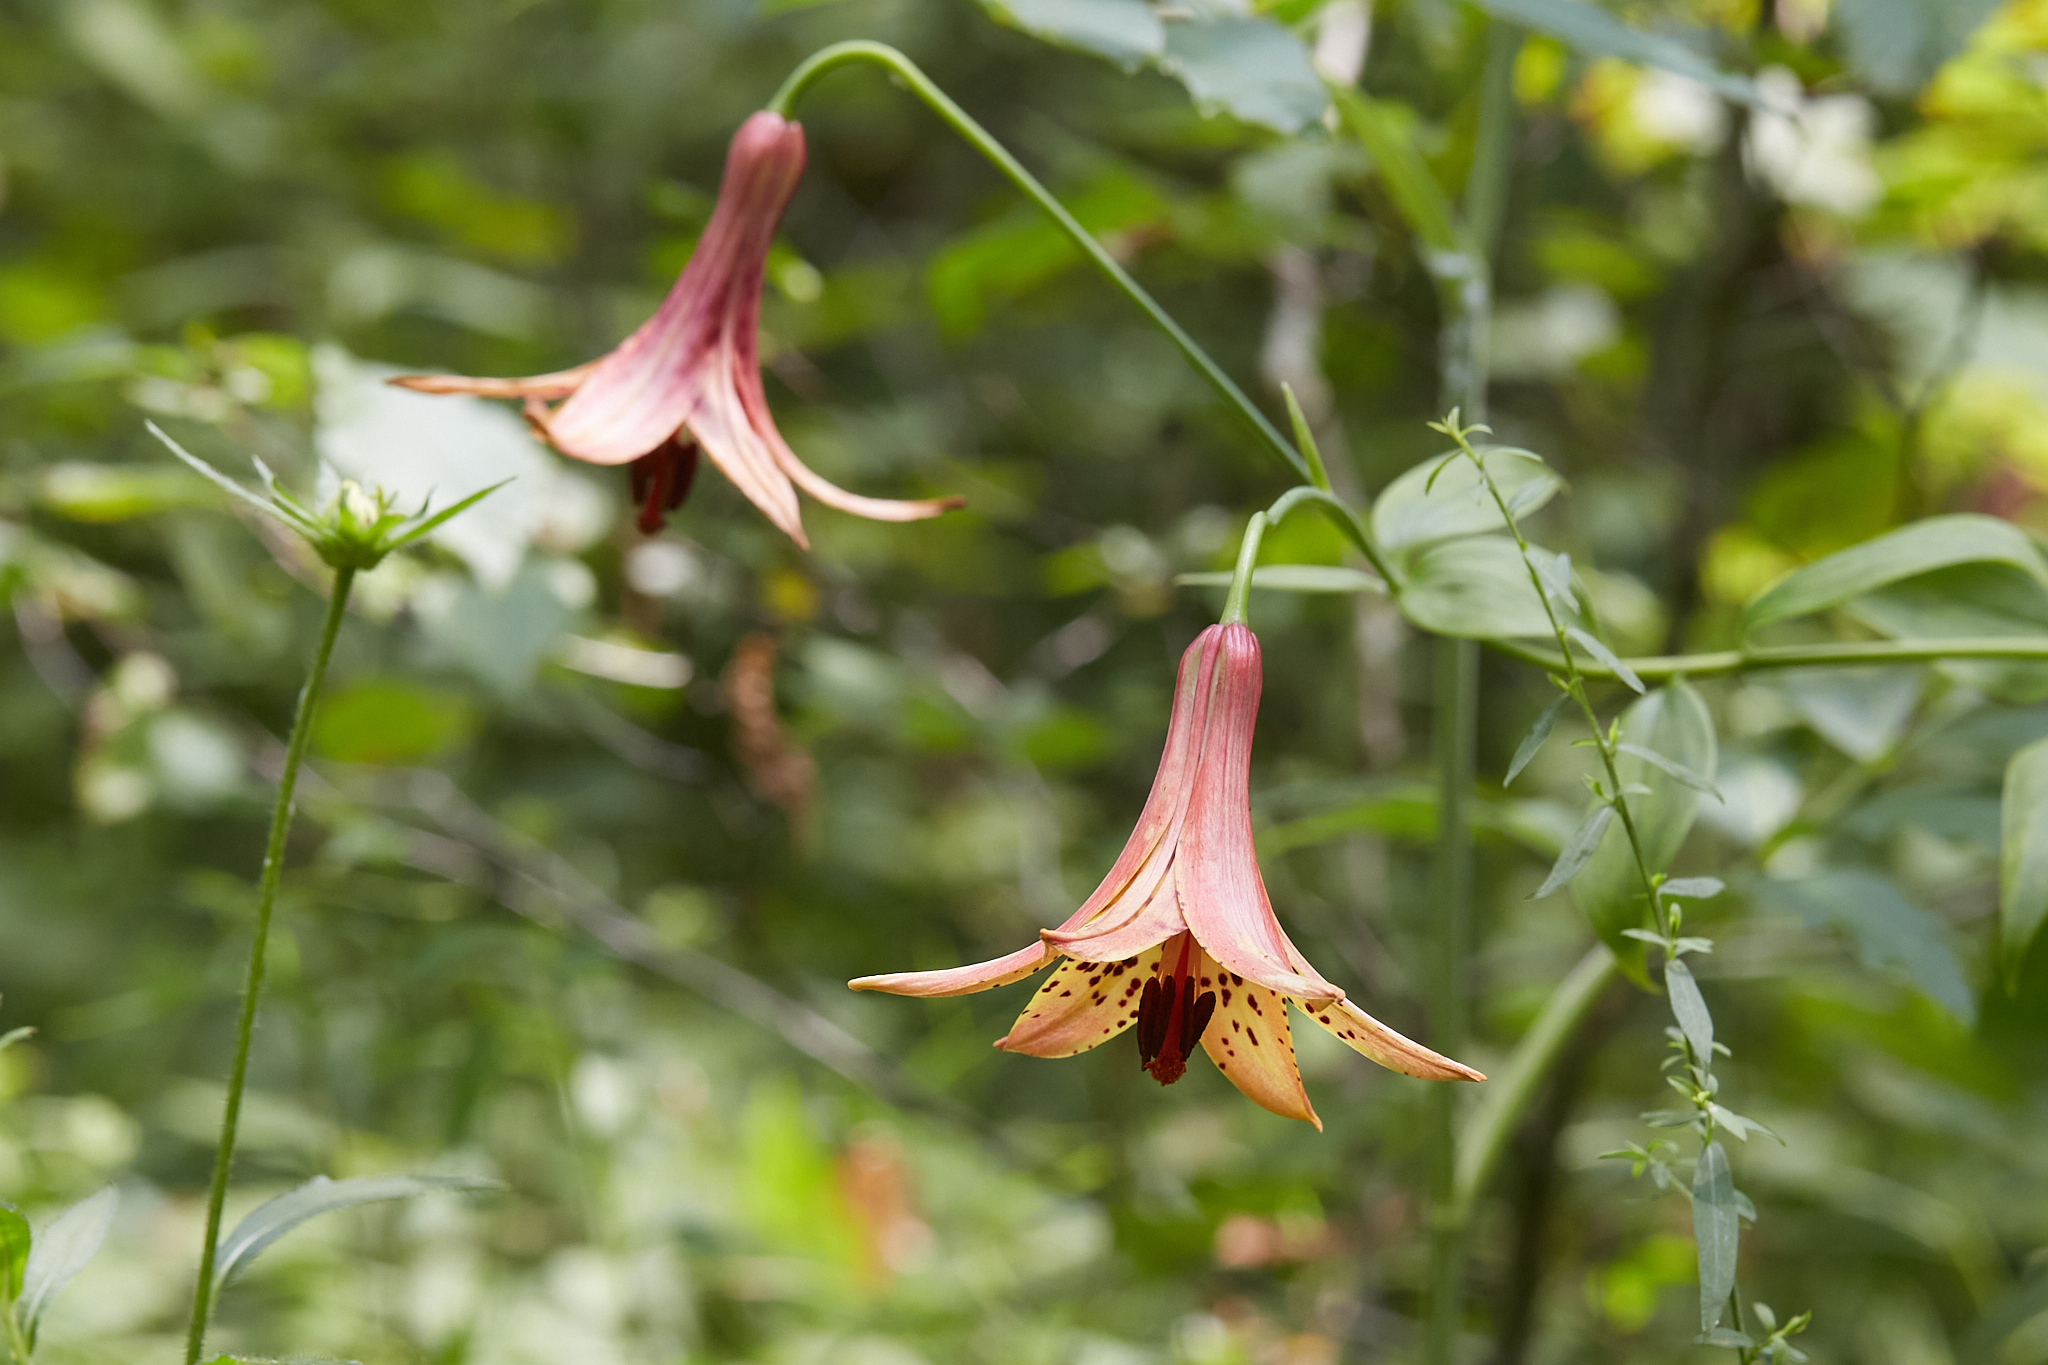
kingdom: Plantae
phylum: Tracheophyta
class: Liliopsida
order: Liliales
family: Liliaceae
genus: Lilium
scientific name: Lilium canadense
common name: Canada lily
